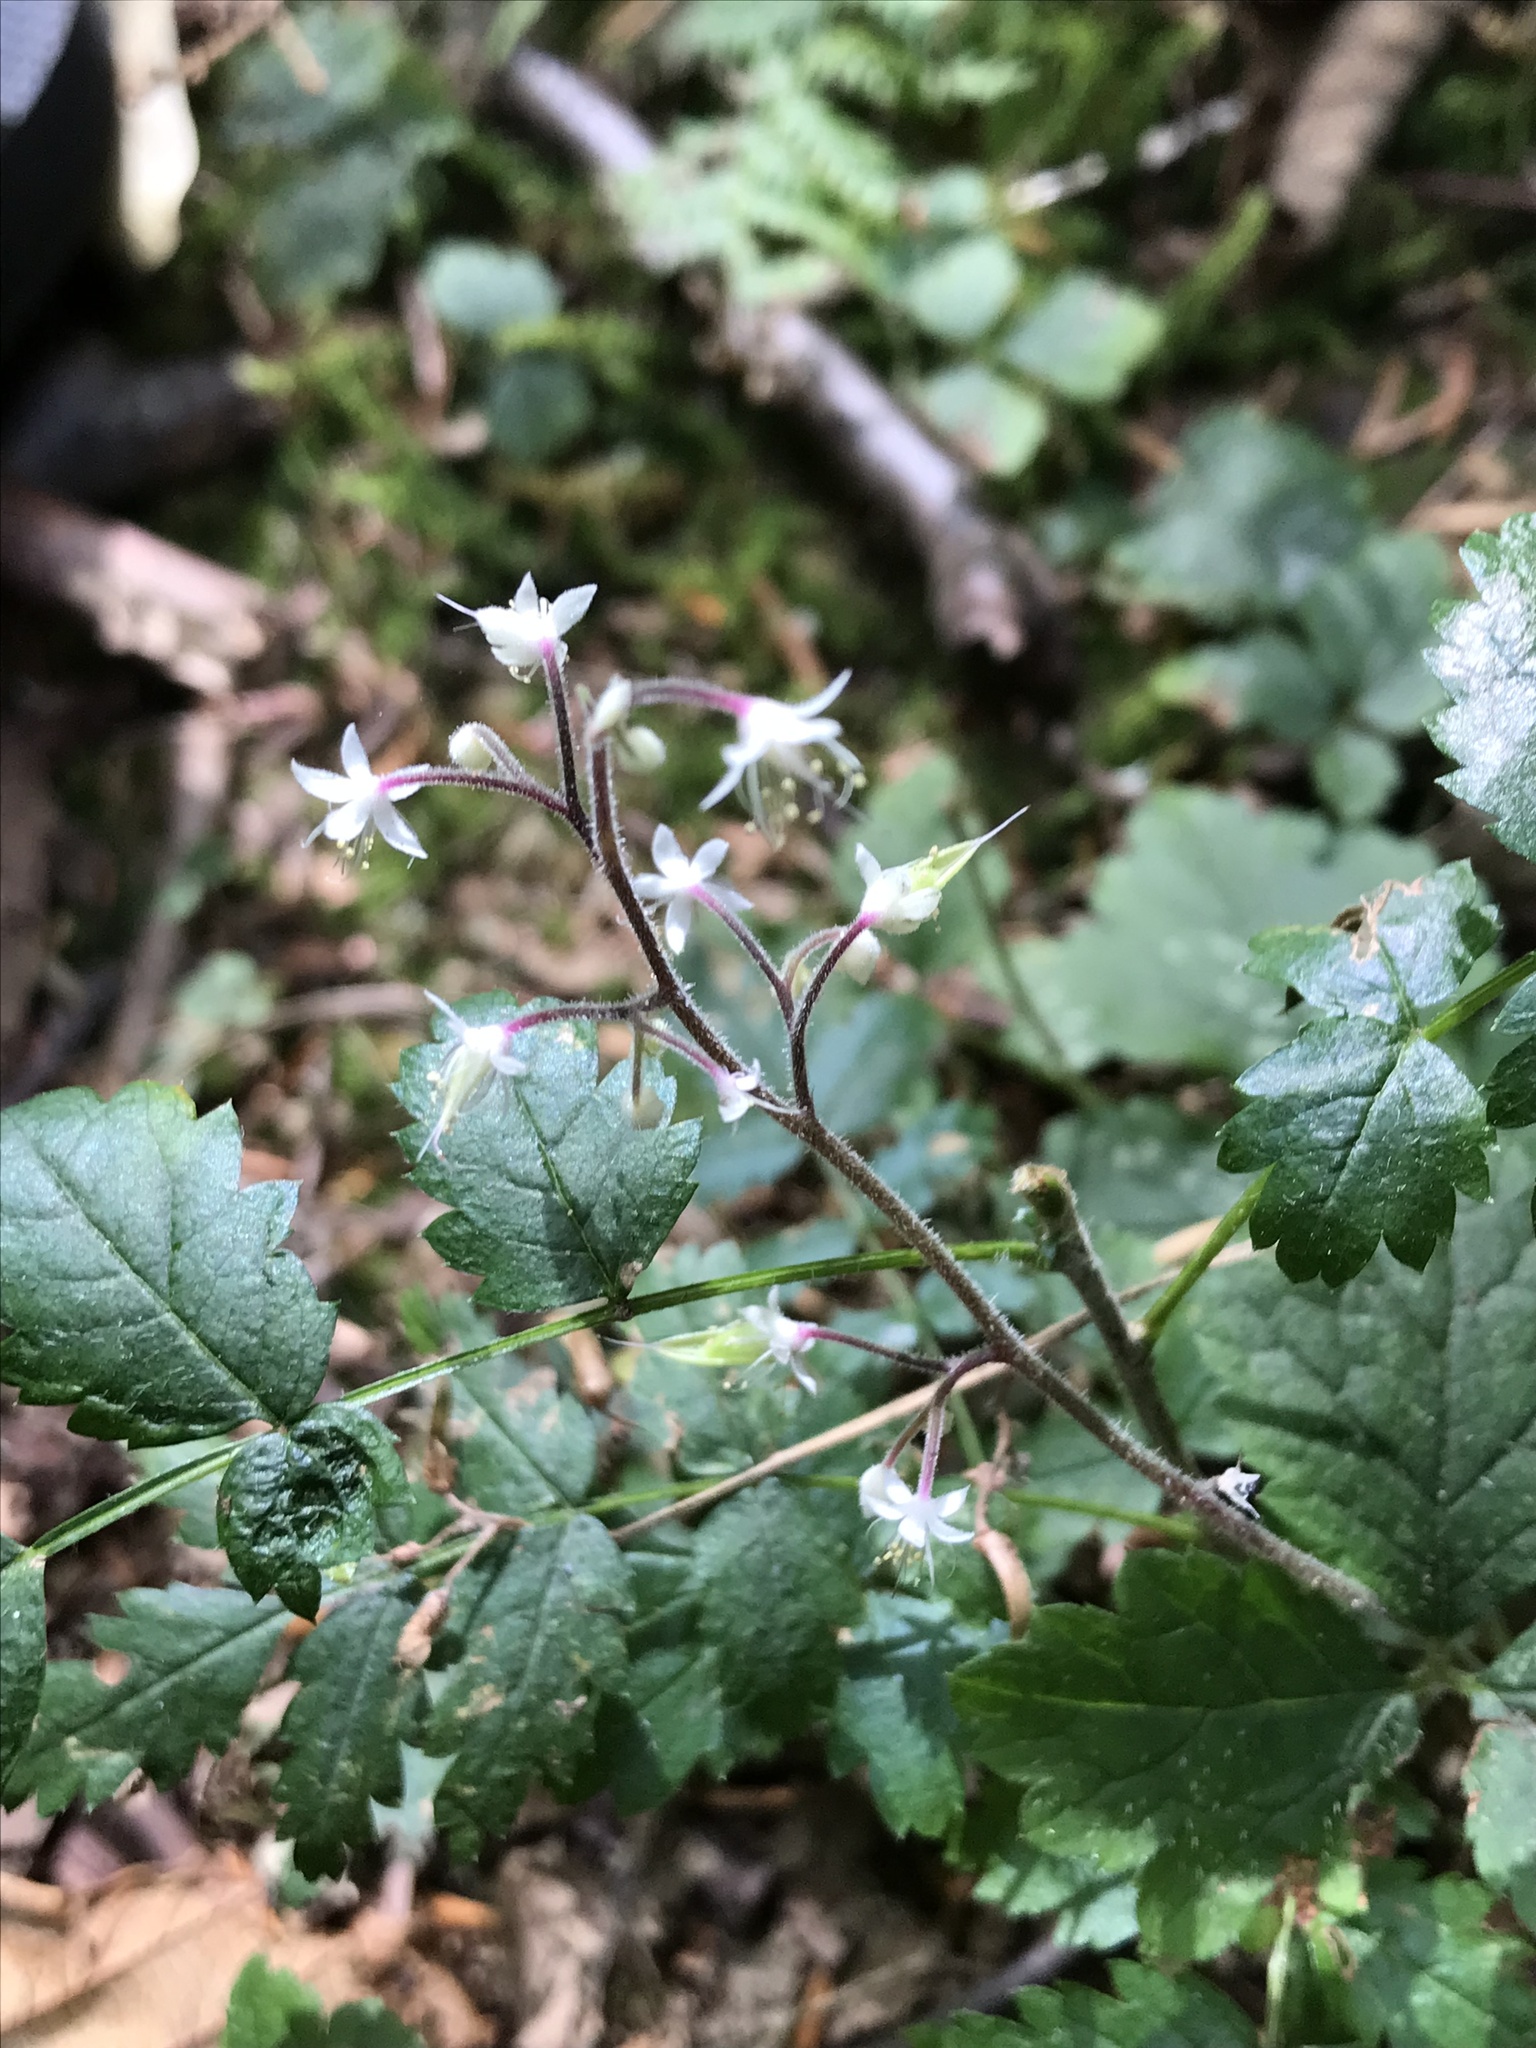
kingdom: Plantae
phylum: Tracheophyta
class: Magnoliopsida
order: Saxifragales
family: Saxifragaceae
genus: Tiarella
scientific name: Tiarella trifoliata
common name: Sugar-scoop
